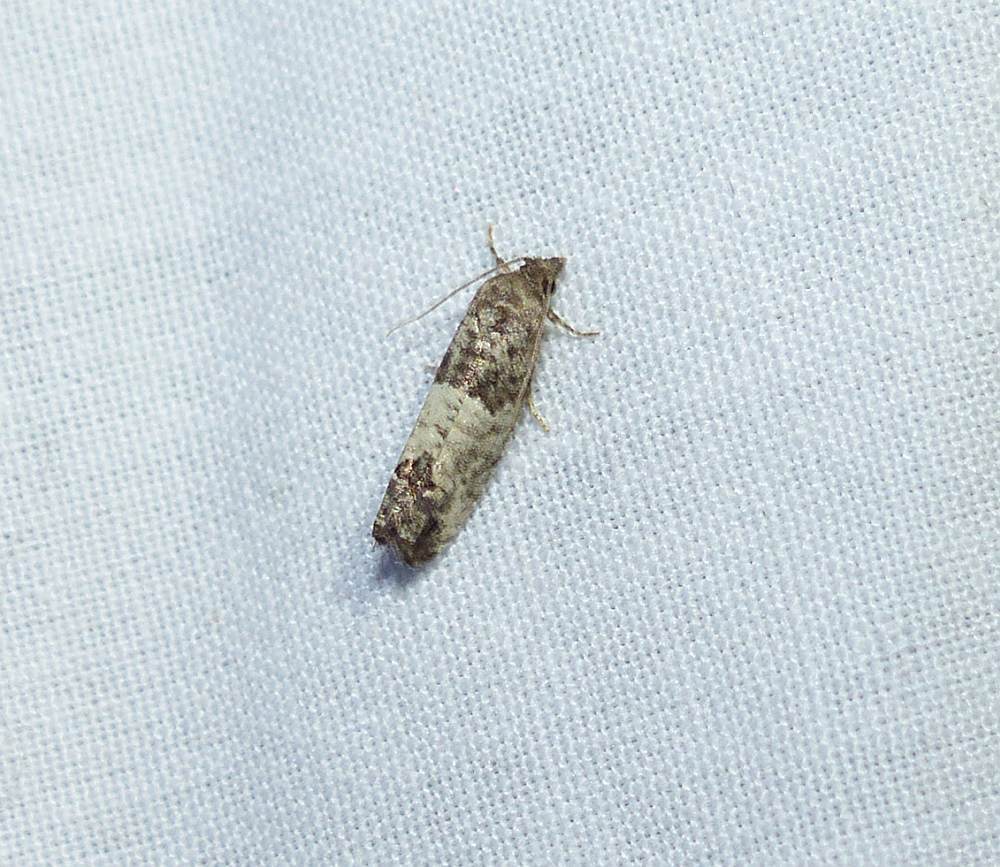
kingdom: Animalia
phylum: Arthropoda
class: Insecta
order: Lepidoptera
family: Tortricidae
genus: Spilonota
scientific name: Spilonota ocellana
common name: Bud moth
